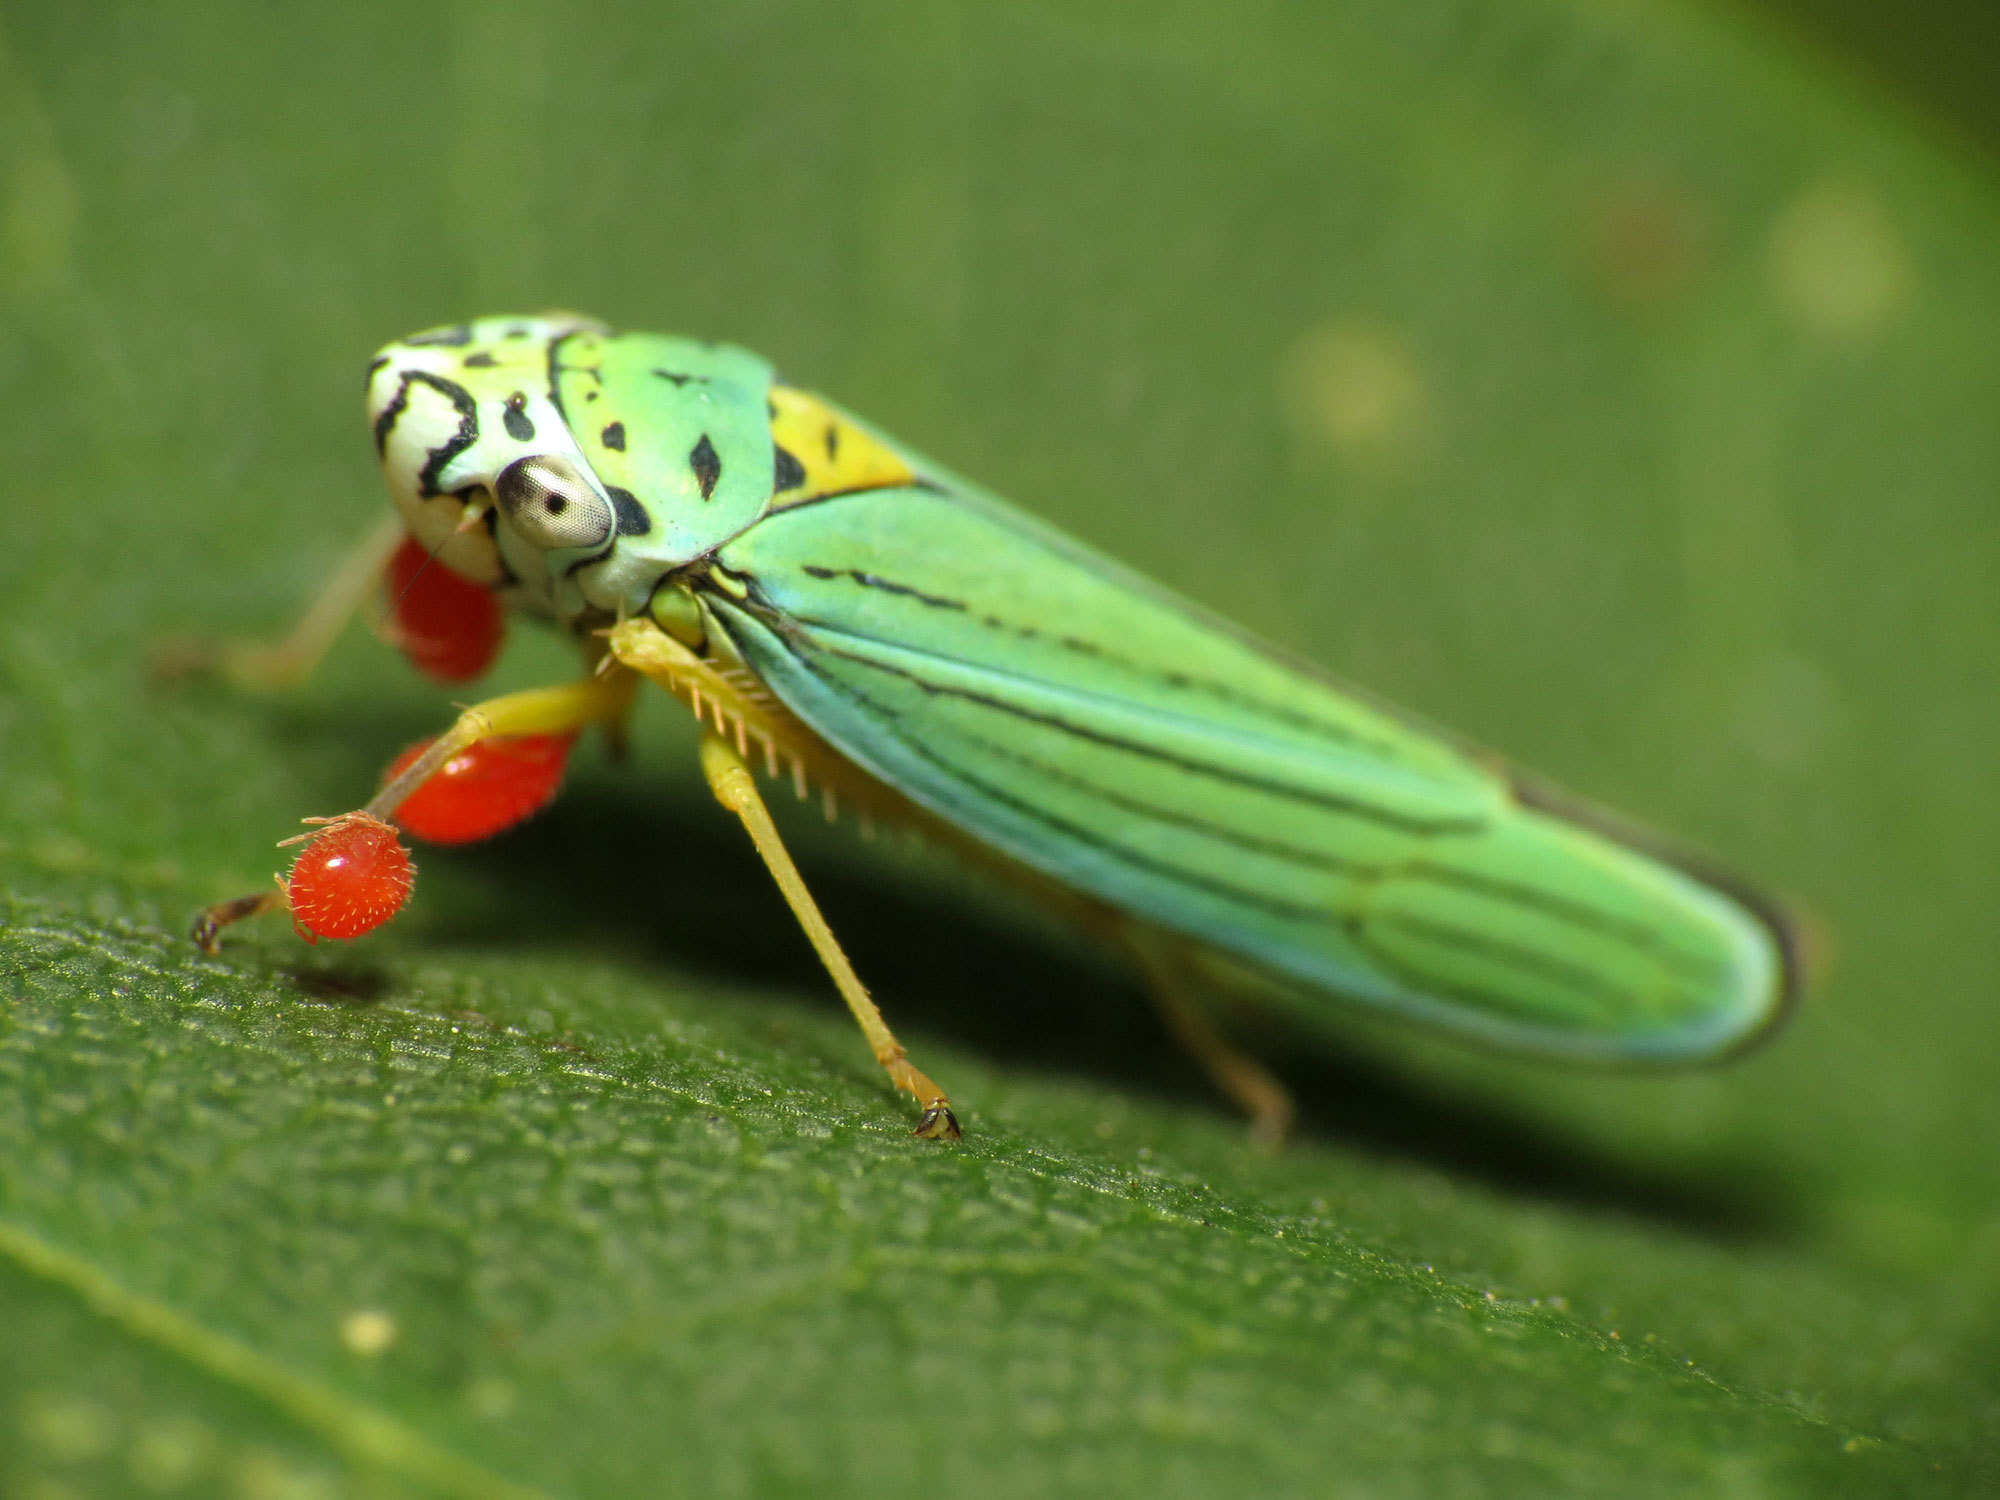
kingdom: Animalia
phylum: Arthropoda
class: Insecta
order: Hemiptera
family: Cicadellidae
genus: Graphocephala
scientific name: Graphocephala atropunctata
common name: Blue-green sharpshooter
